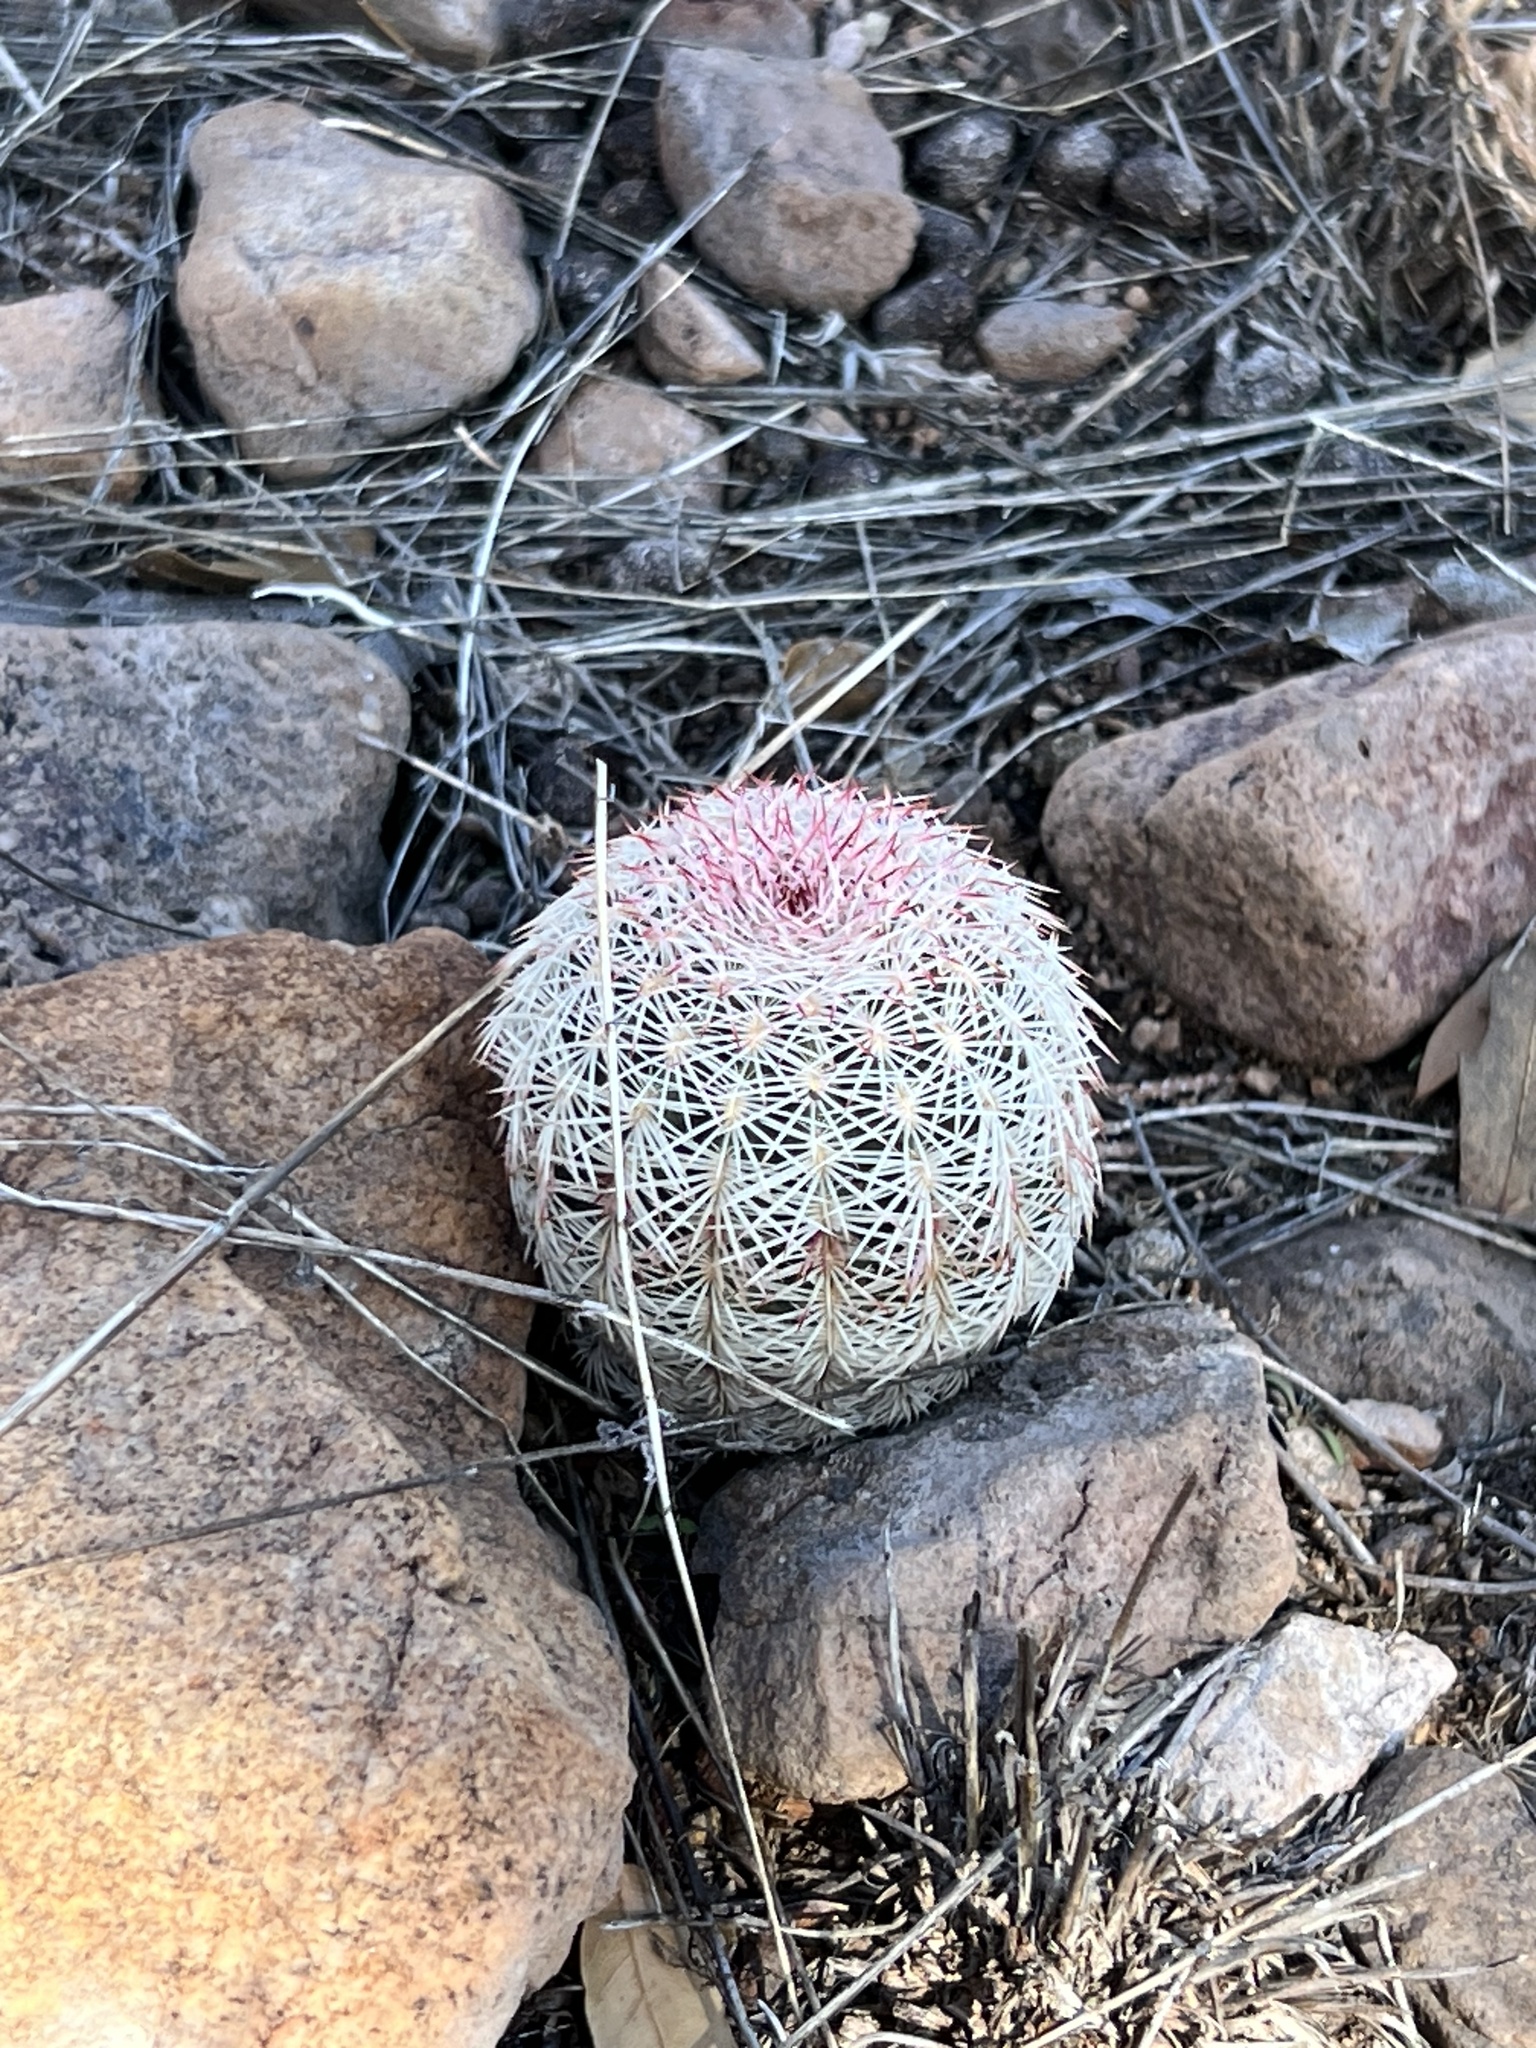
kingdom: Plantae
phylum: Tracheophyta
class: Magnoliopsida
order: Caryophyllales
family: Cactaceae
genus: Echinocereus
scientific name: Echinocereus rigidissimus
